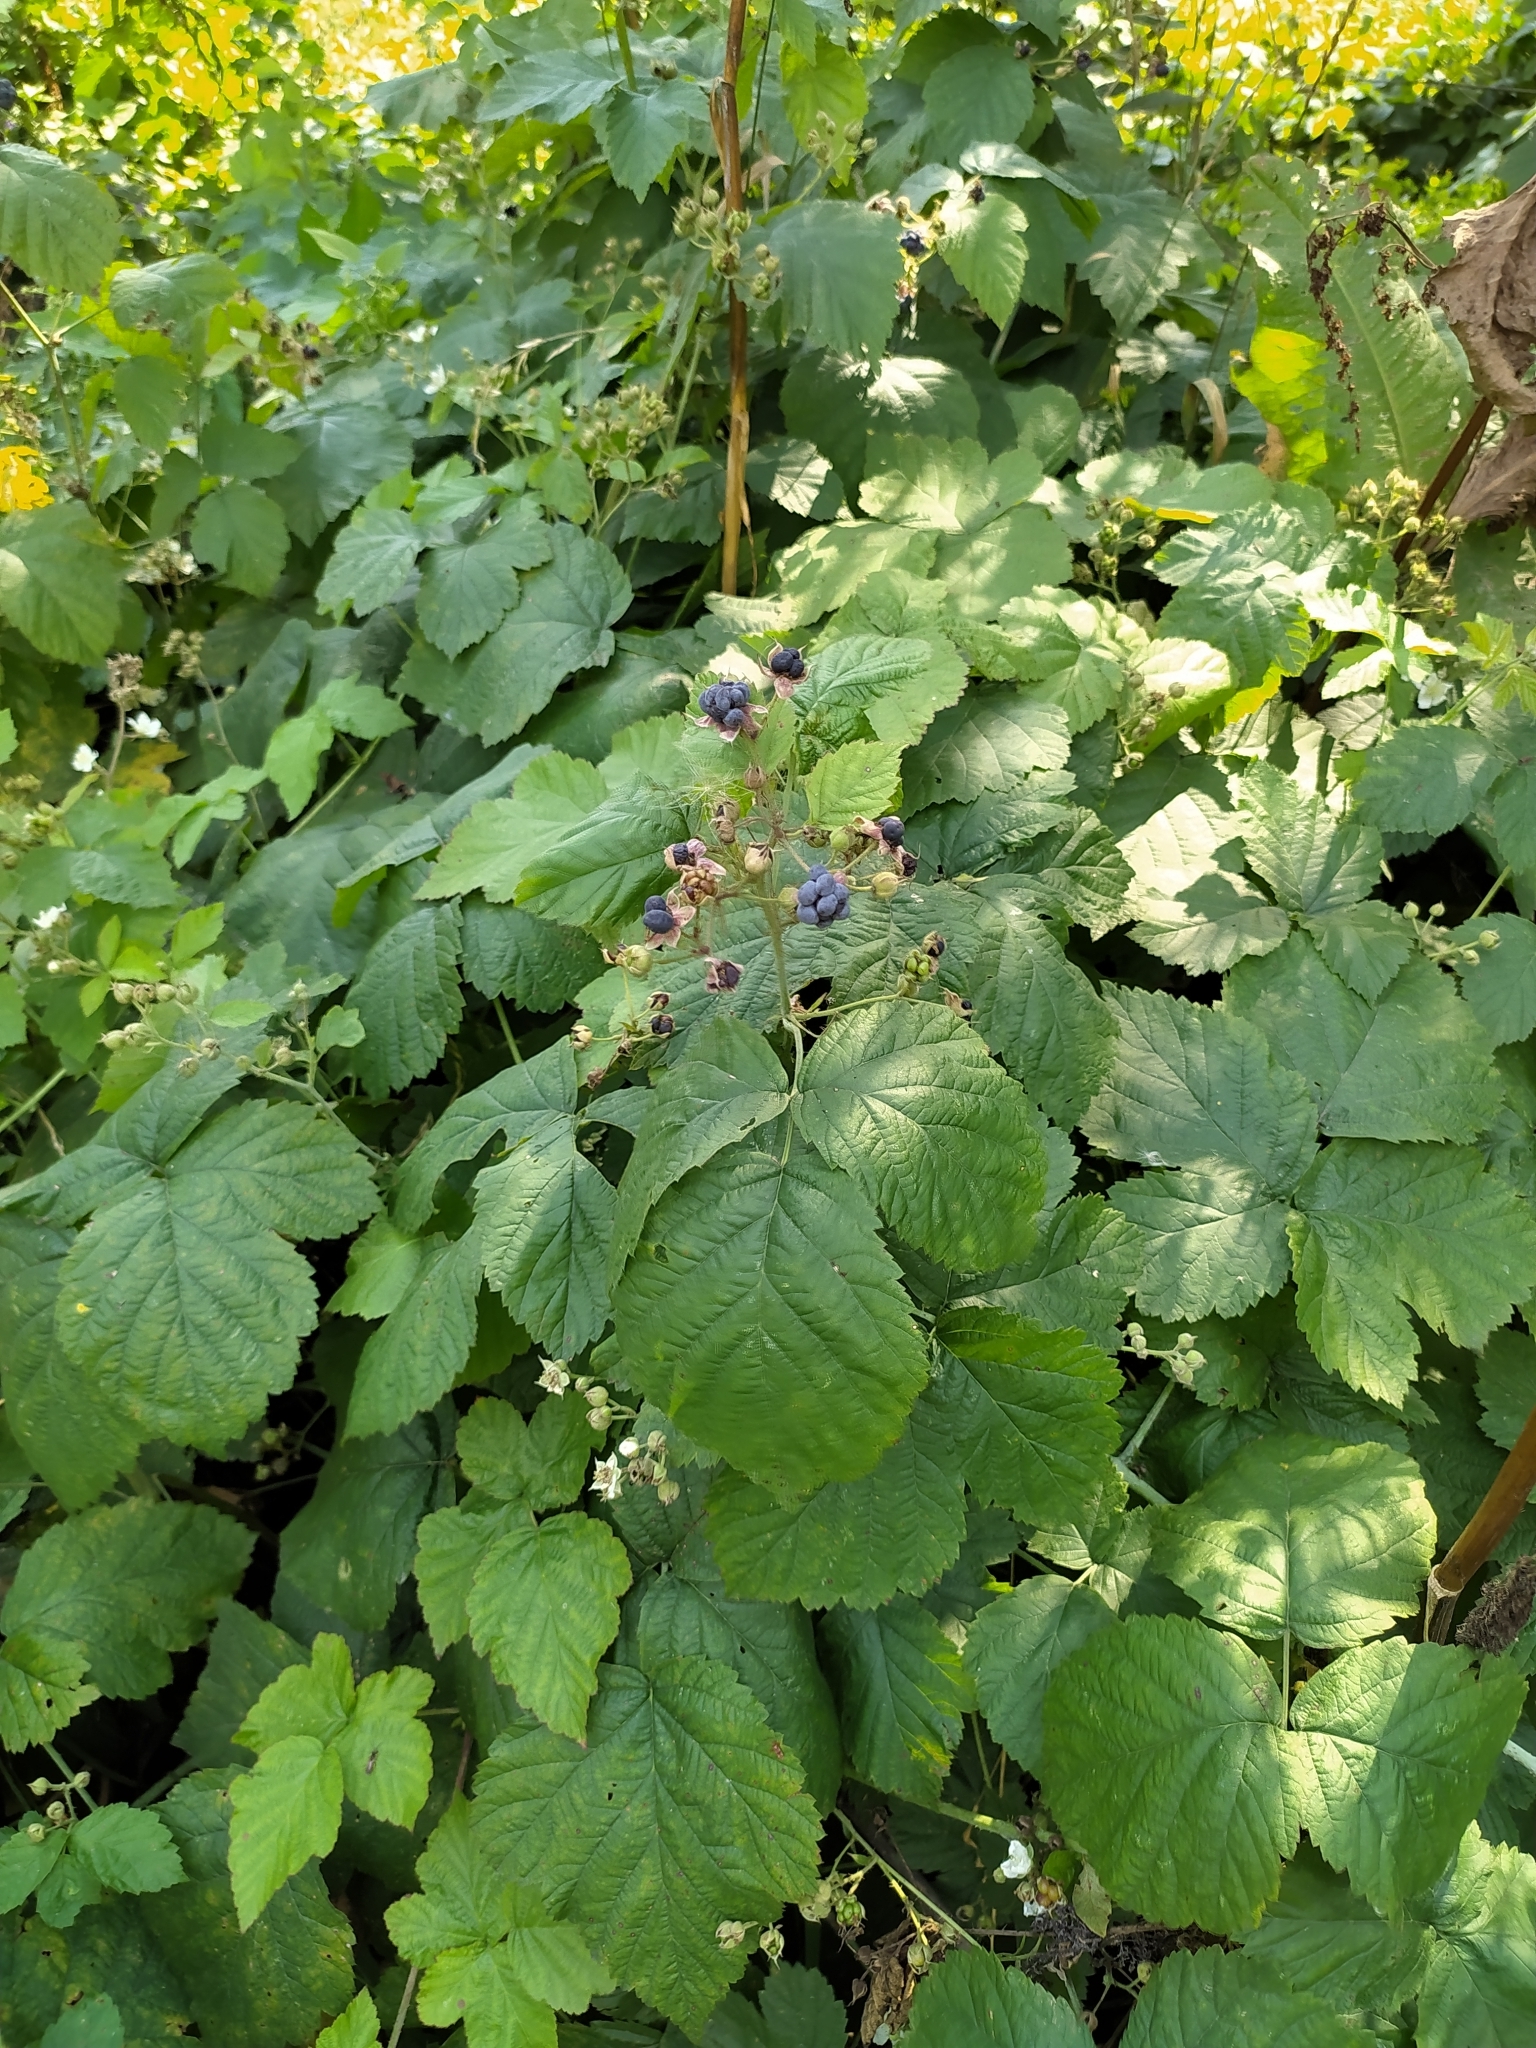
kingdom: Plantae
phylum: Tracheophyta
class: Magnoliopsida
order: Rosales
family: Rosaceae
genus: Rubus
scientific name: Rubus caesius
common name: Dewberry
